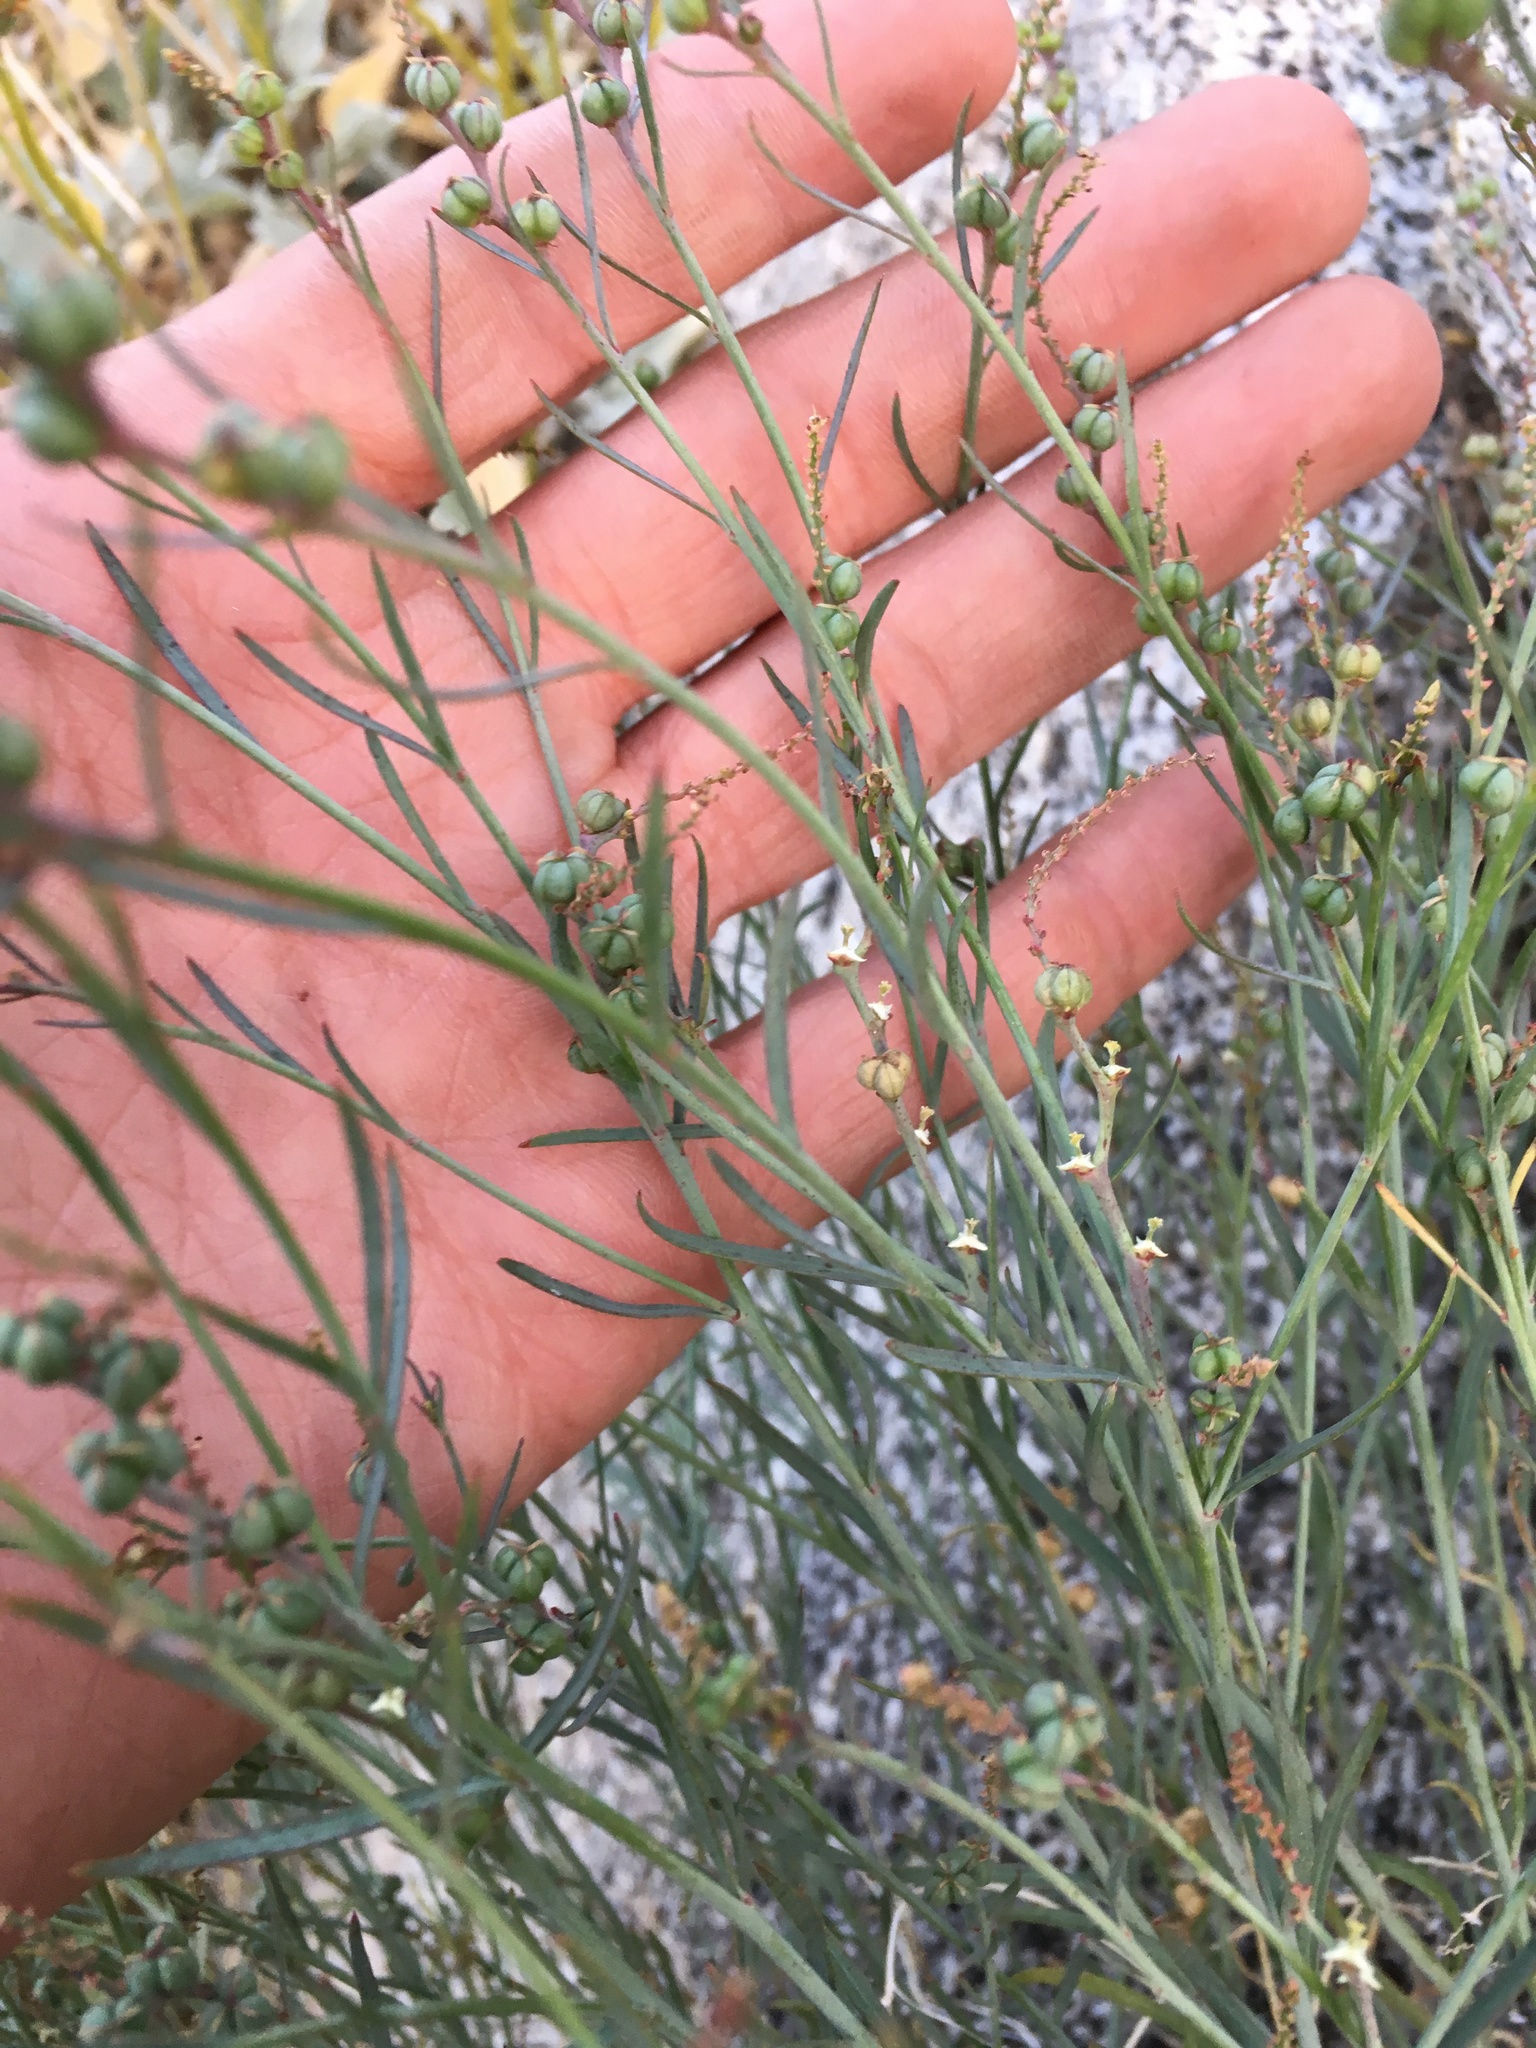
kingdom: Plantae
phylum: Tracheophyta
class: Magnoliopsida
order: Malpighiales
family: Euphorbiaceae
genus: Stillingia
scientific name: Stillingia linearifolia
